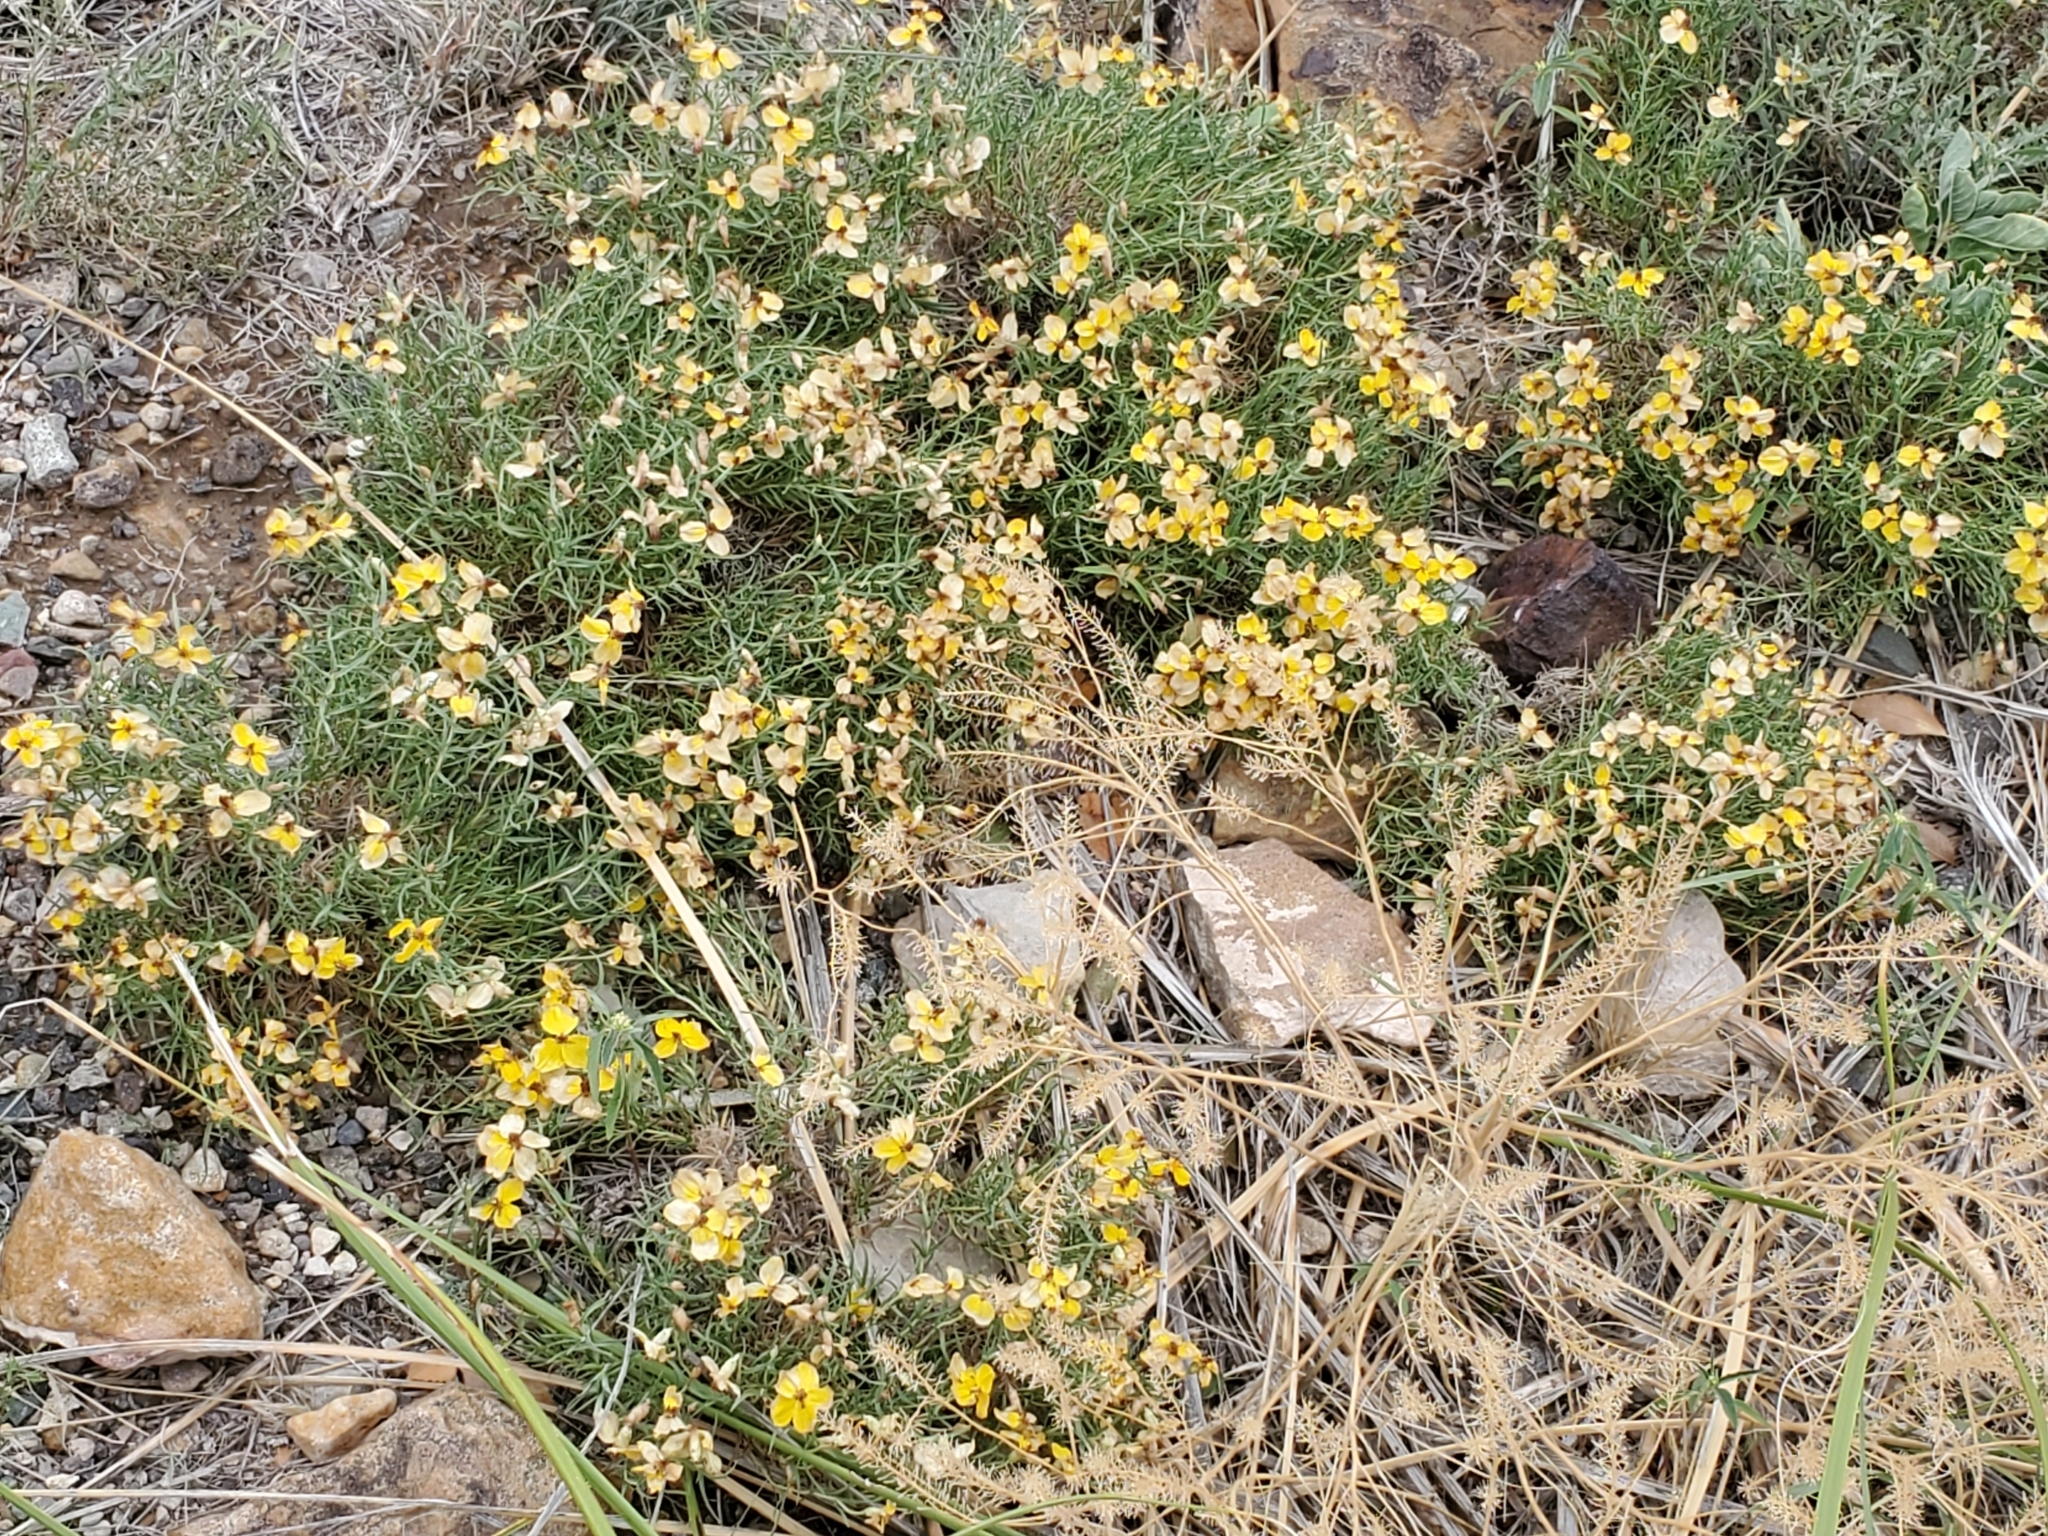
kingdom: Plantae
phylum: Tracheophyta
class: Magnoliopsida
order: Asterales
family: Asteraceae
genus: Zinnia
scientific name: Zinnia grandiflora
